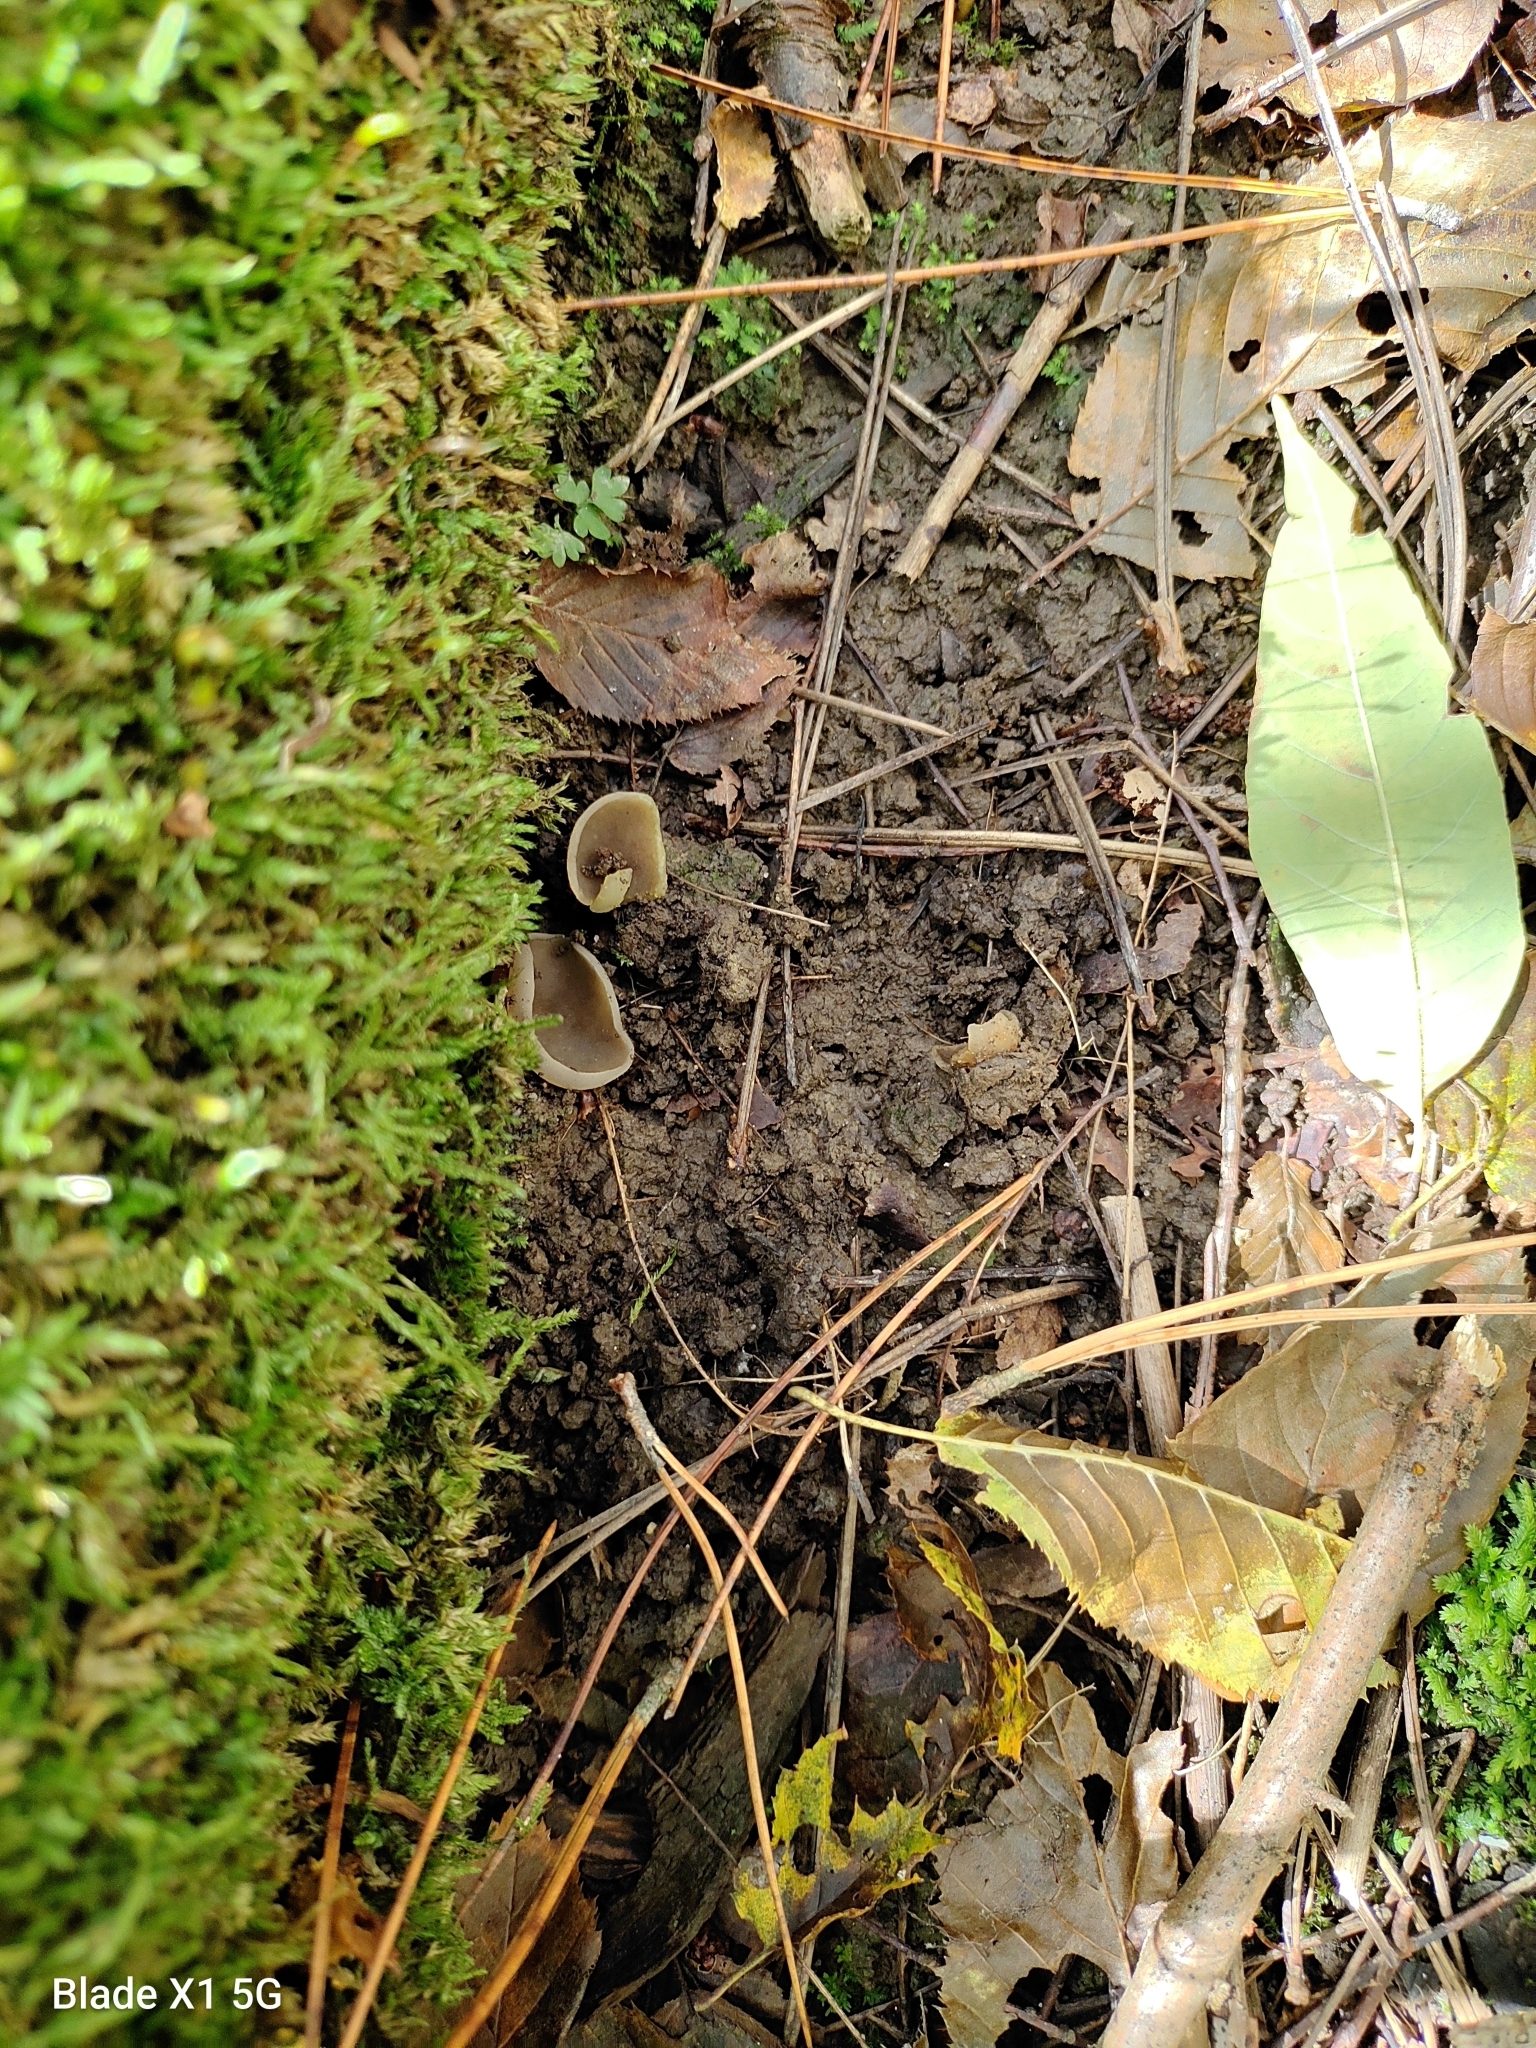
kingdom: Fungi
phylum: Ascomycota
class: Pezizomycetes
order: Pezizales
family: Pezizaceae
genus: Pachyella
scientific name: Pachyella celtica
